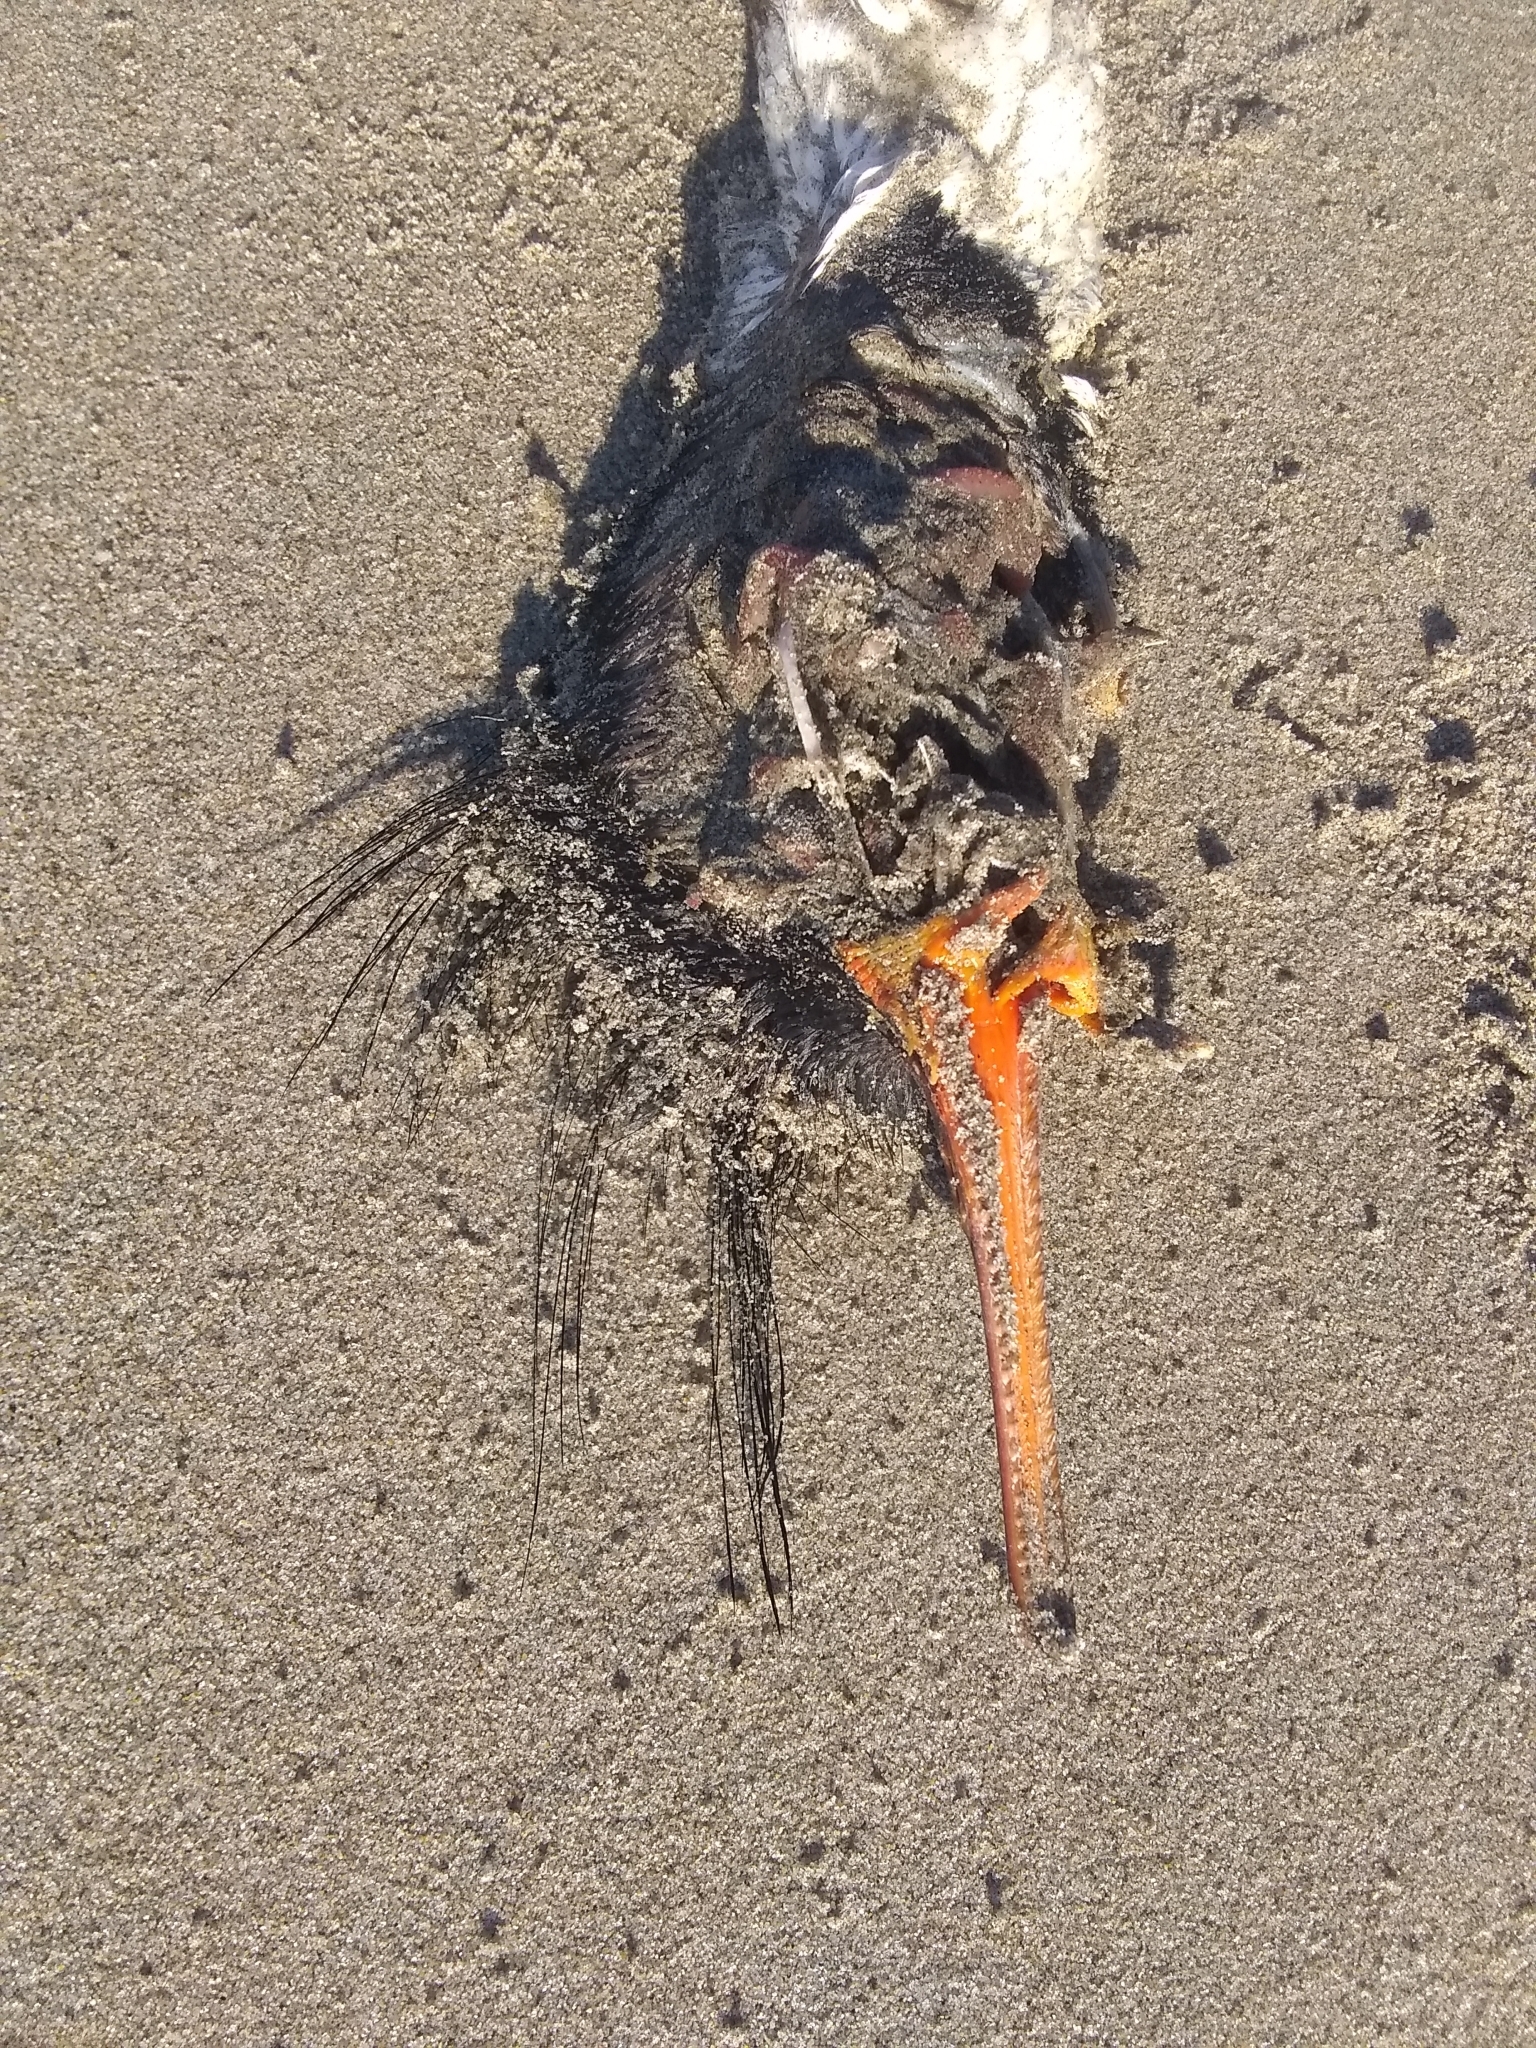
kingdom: Animalia
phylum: Chordata
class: Aves
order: Anseriformes
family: Anatidae
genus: Mergus
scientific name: Mergus serrator
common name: Red-breasted merganser
